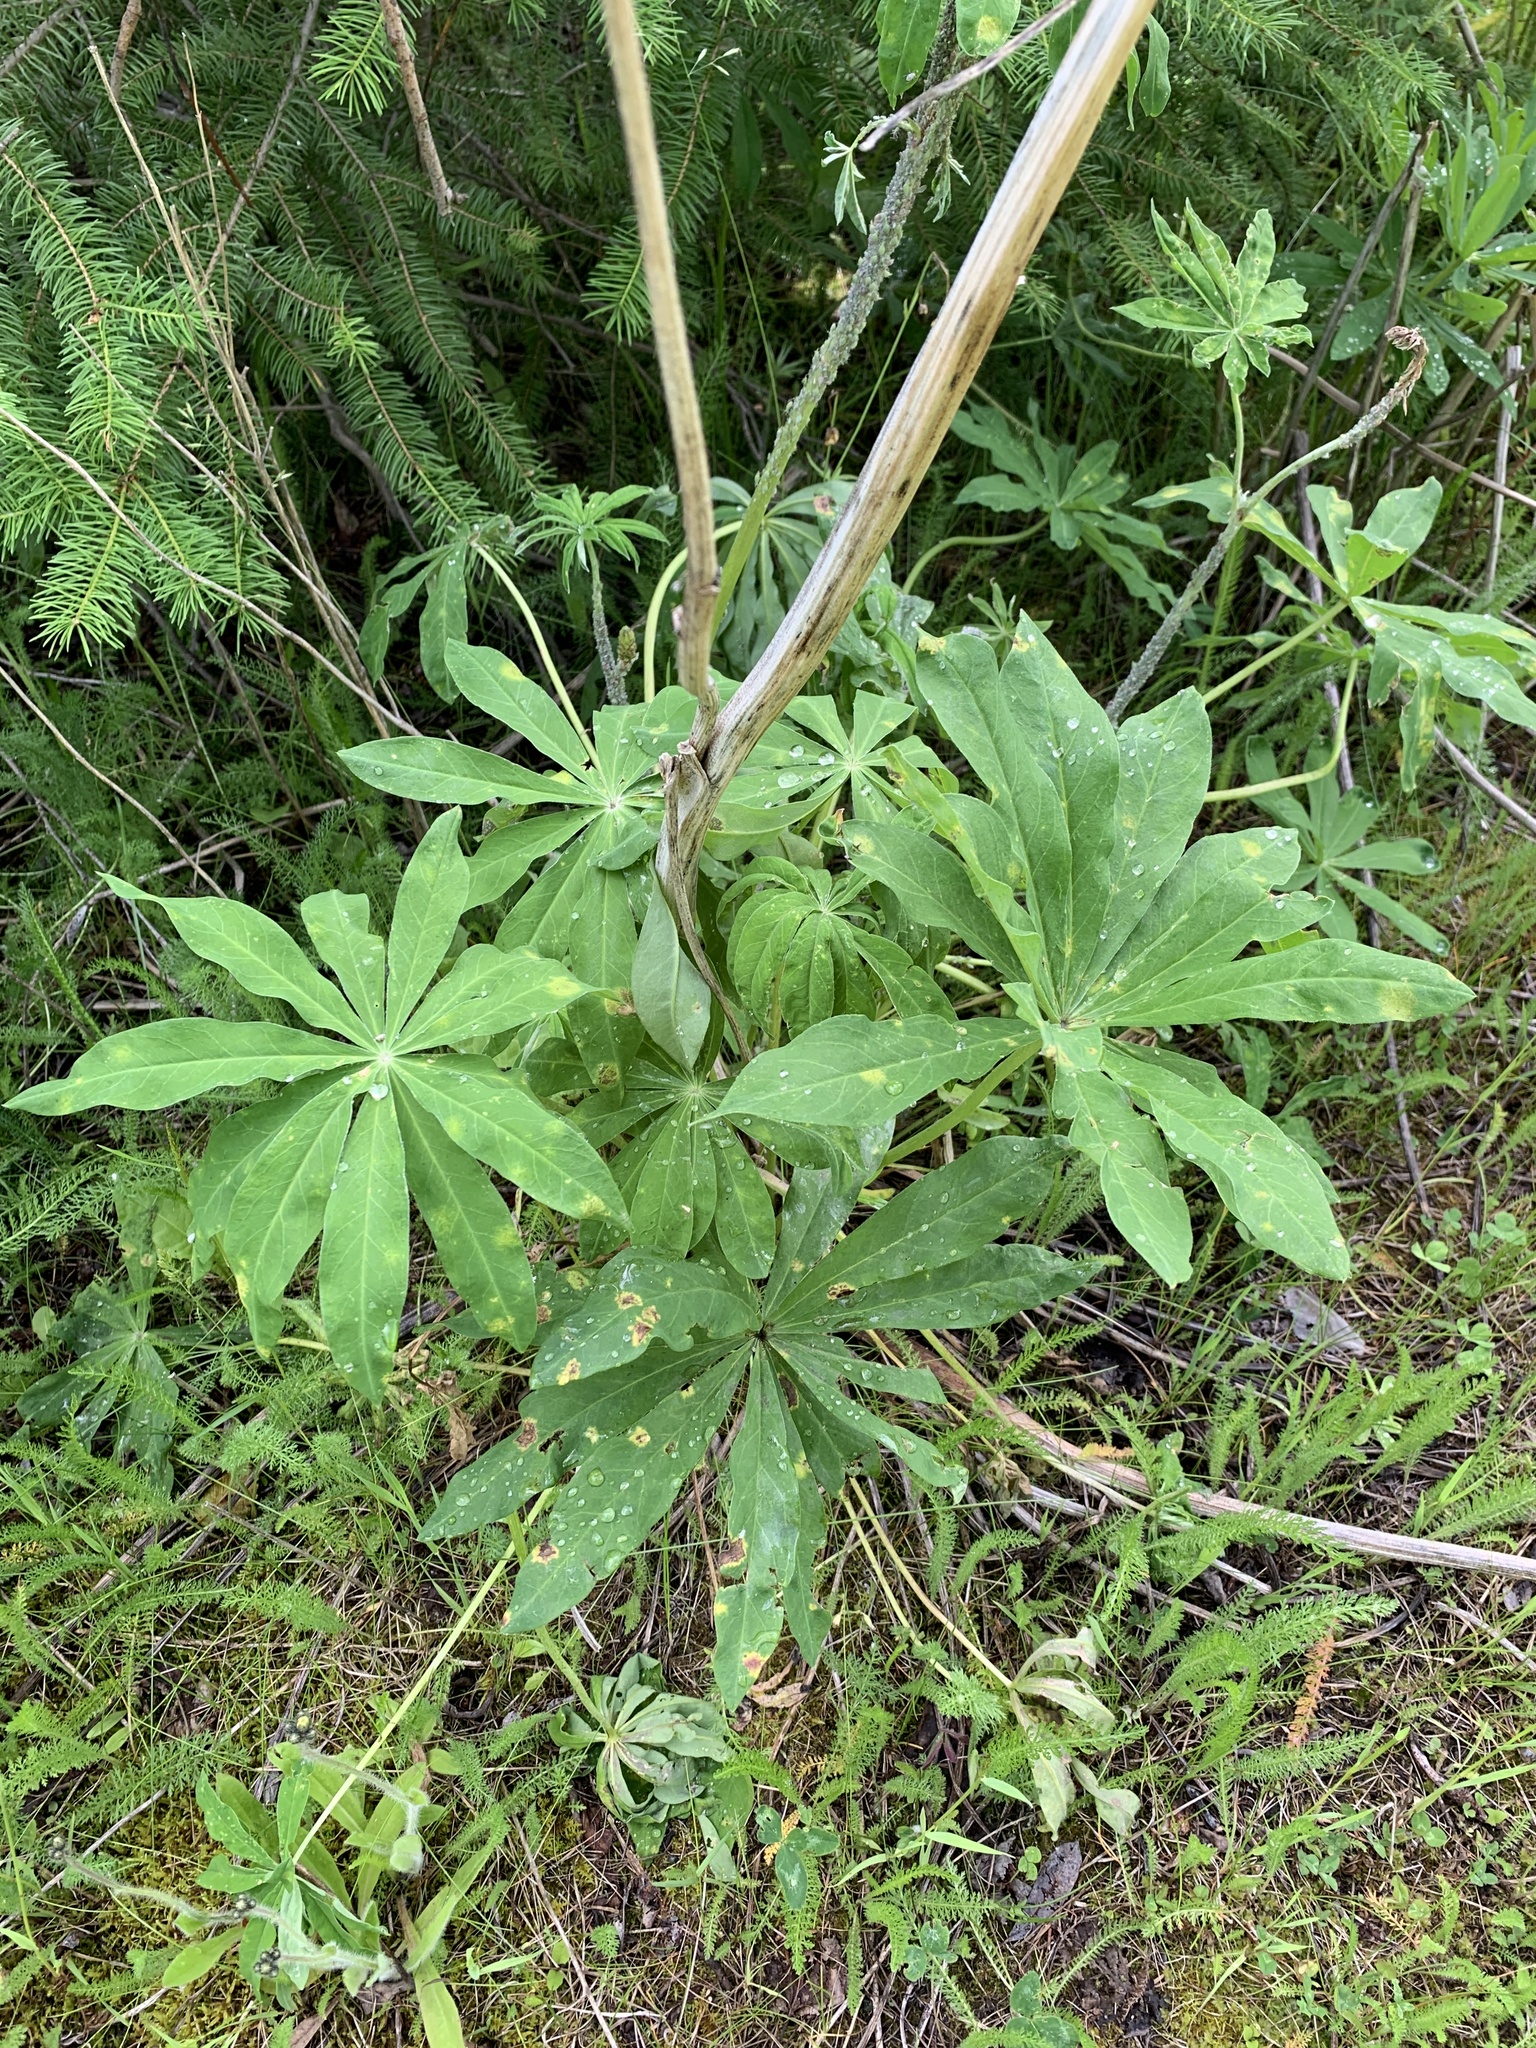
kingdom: Plantae
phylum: Tracheophyta
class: Magnoliopsida
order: Fabales
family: Fabaceae
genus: Lupinus
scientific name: Lupinus polyphyllus
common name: Garden lupin
